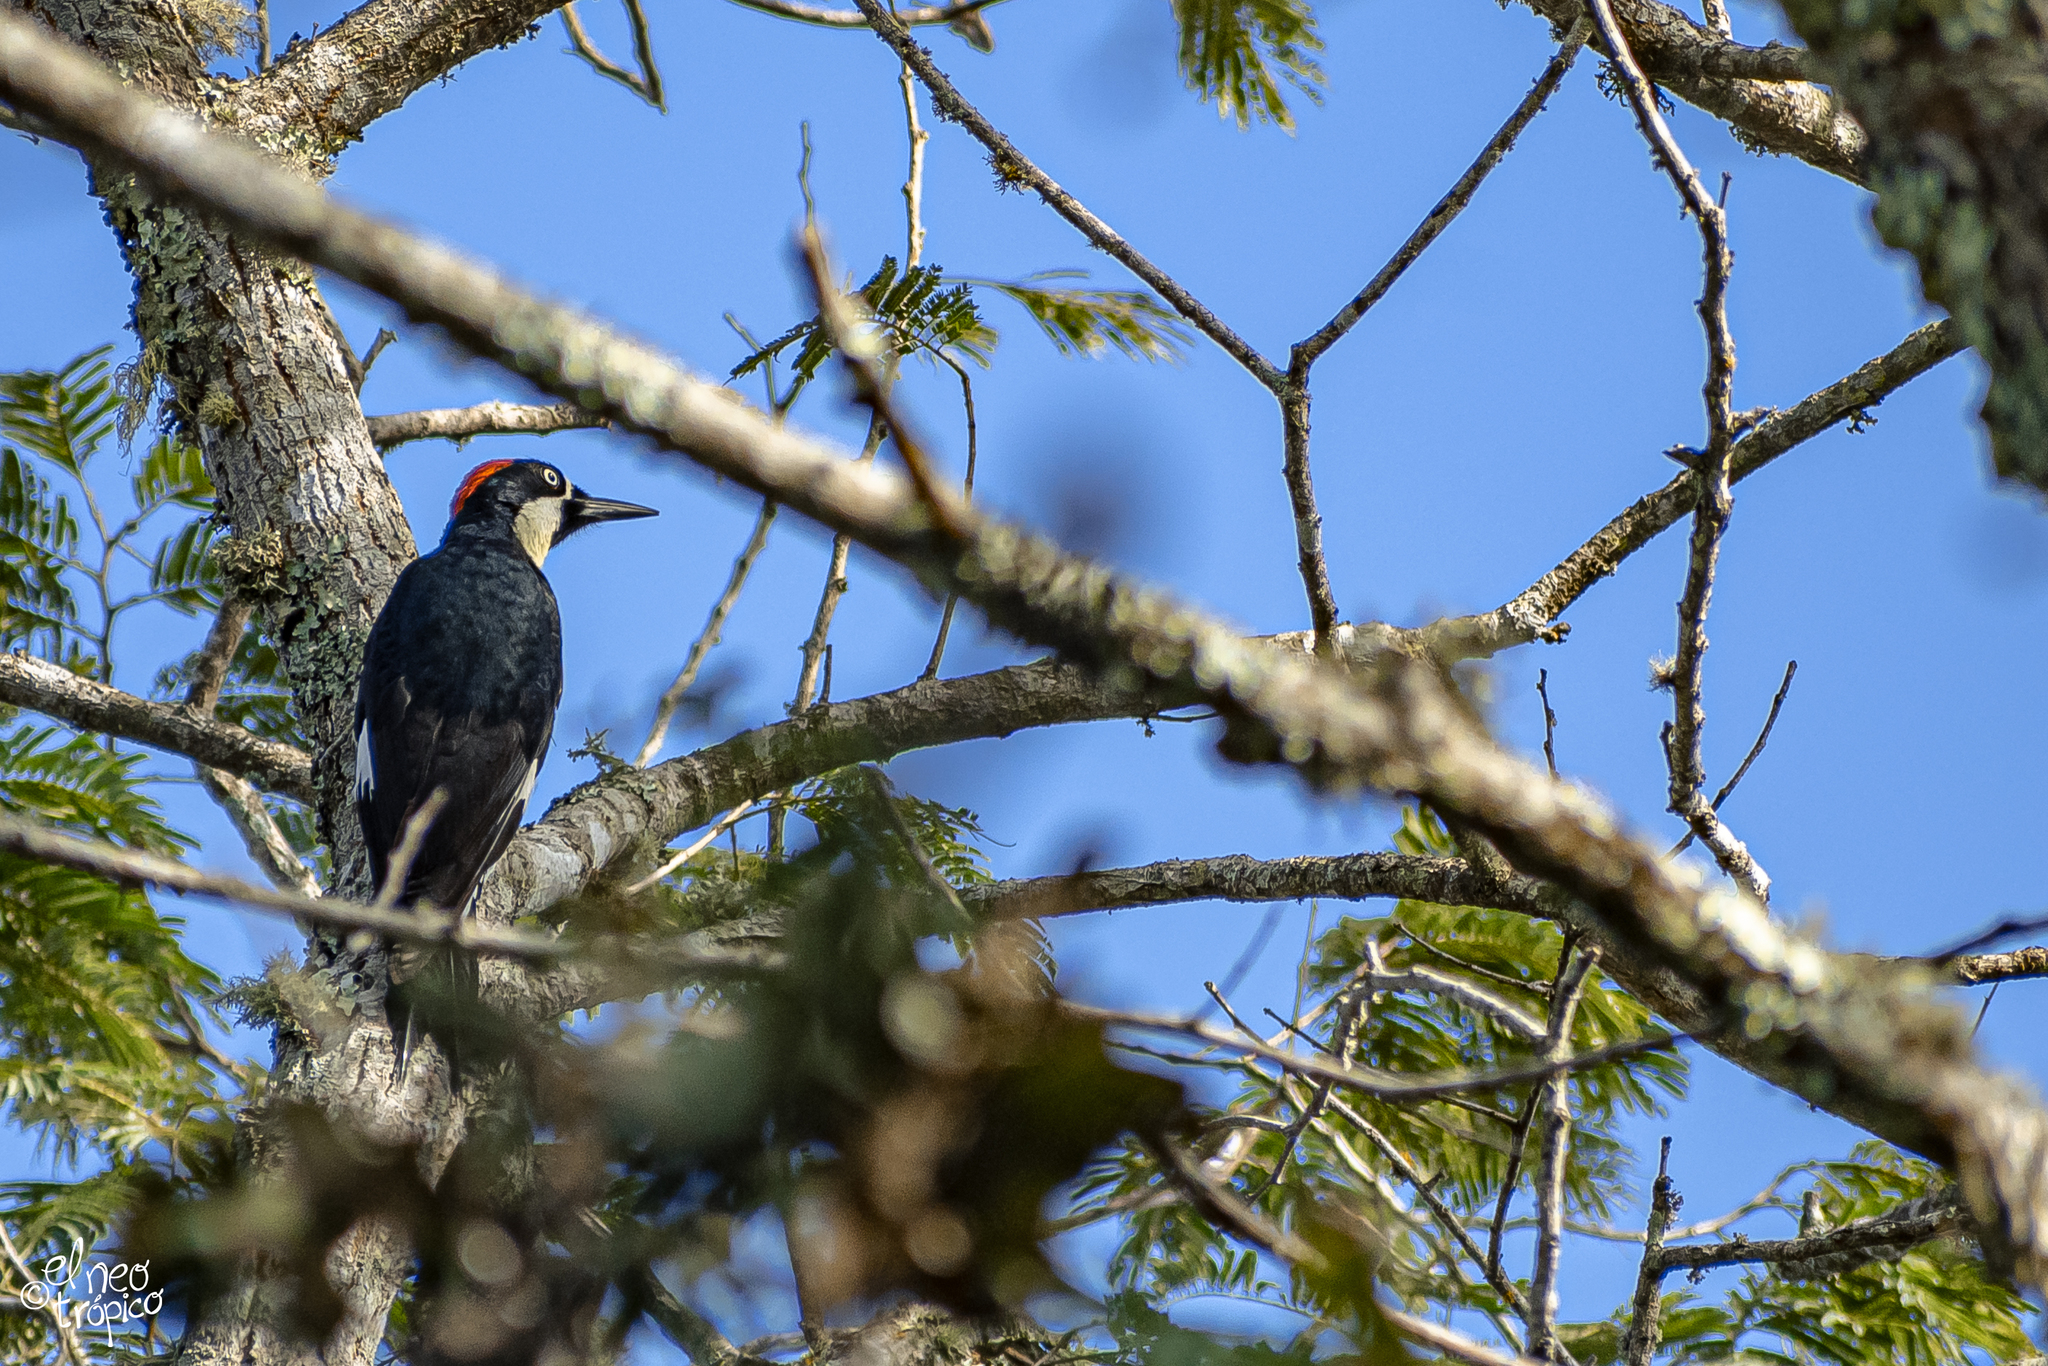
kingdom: Animalia
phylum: Chordata
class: Aves
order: Piciformes
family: Picidae
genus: Melanerpes
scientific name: Melanerpes formicivorus
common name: Acorn woodpecker
